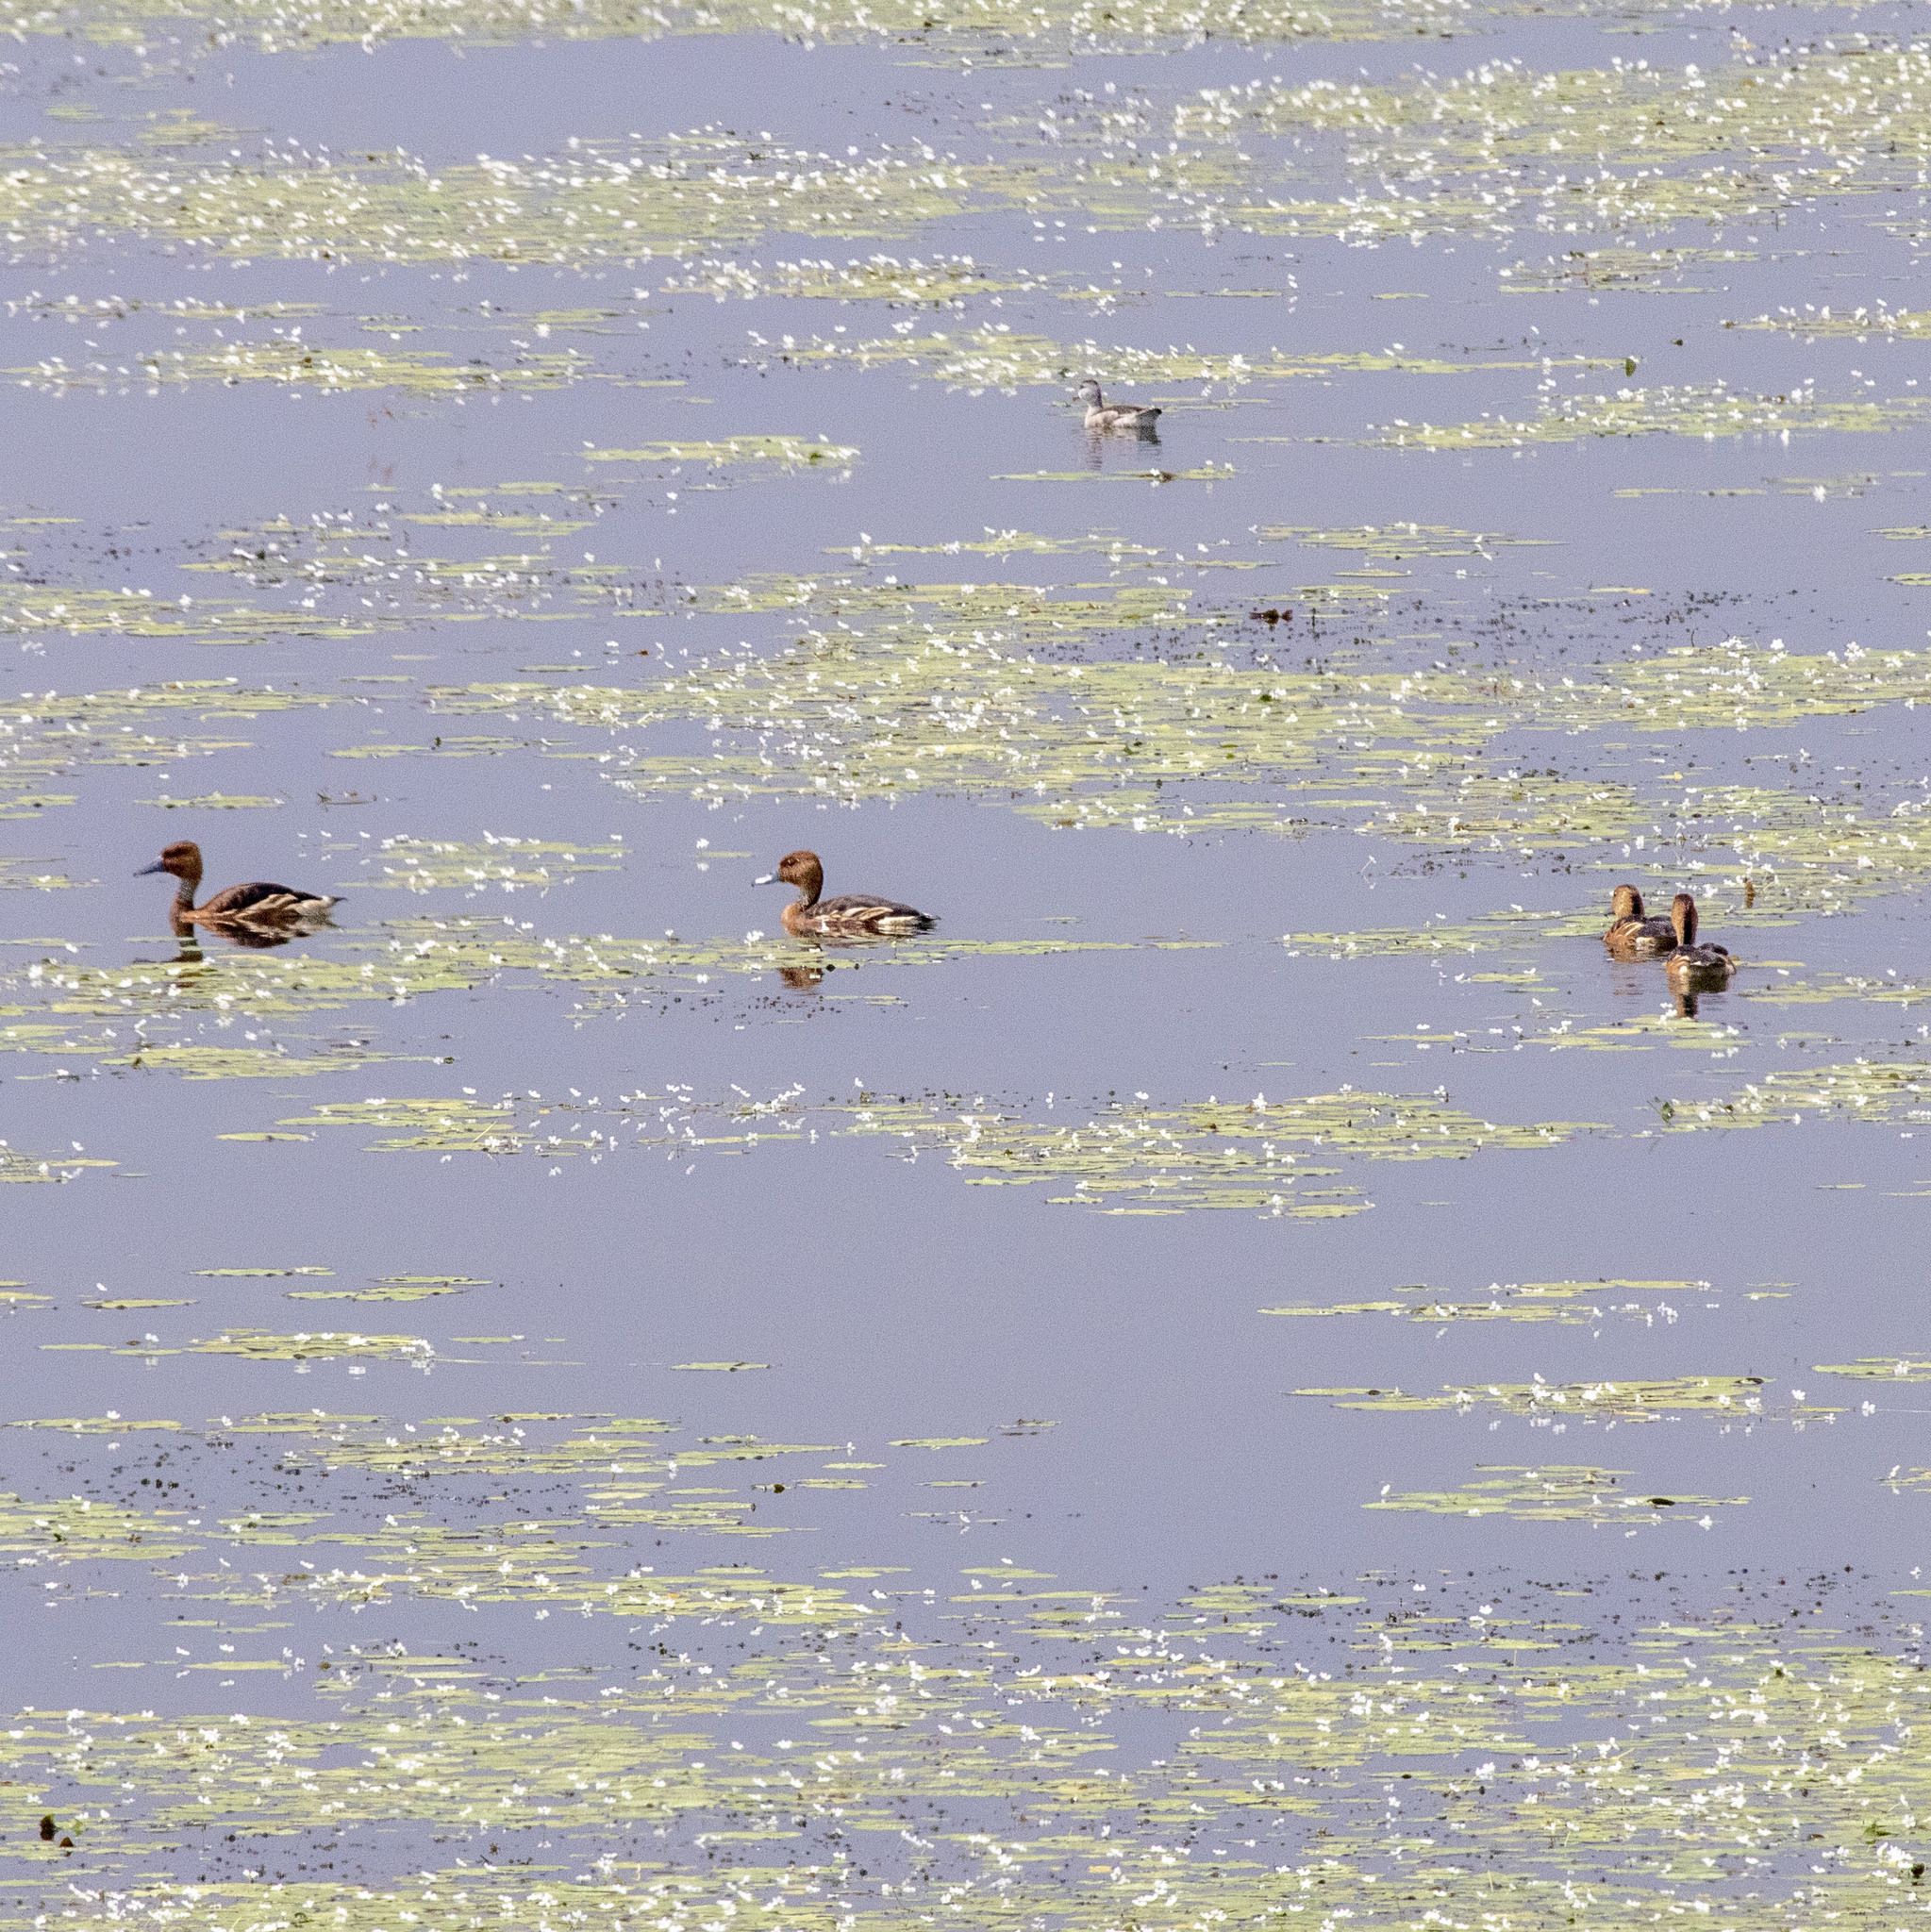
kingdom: Animalia
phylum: Chordata
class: Aves
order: Anseriformes
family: Anatidae
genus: Dendrocygna
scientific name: Dendrocygna bicolor
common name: Fulvous whistling duck
